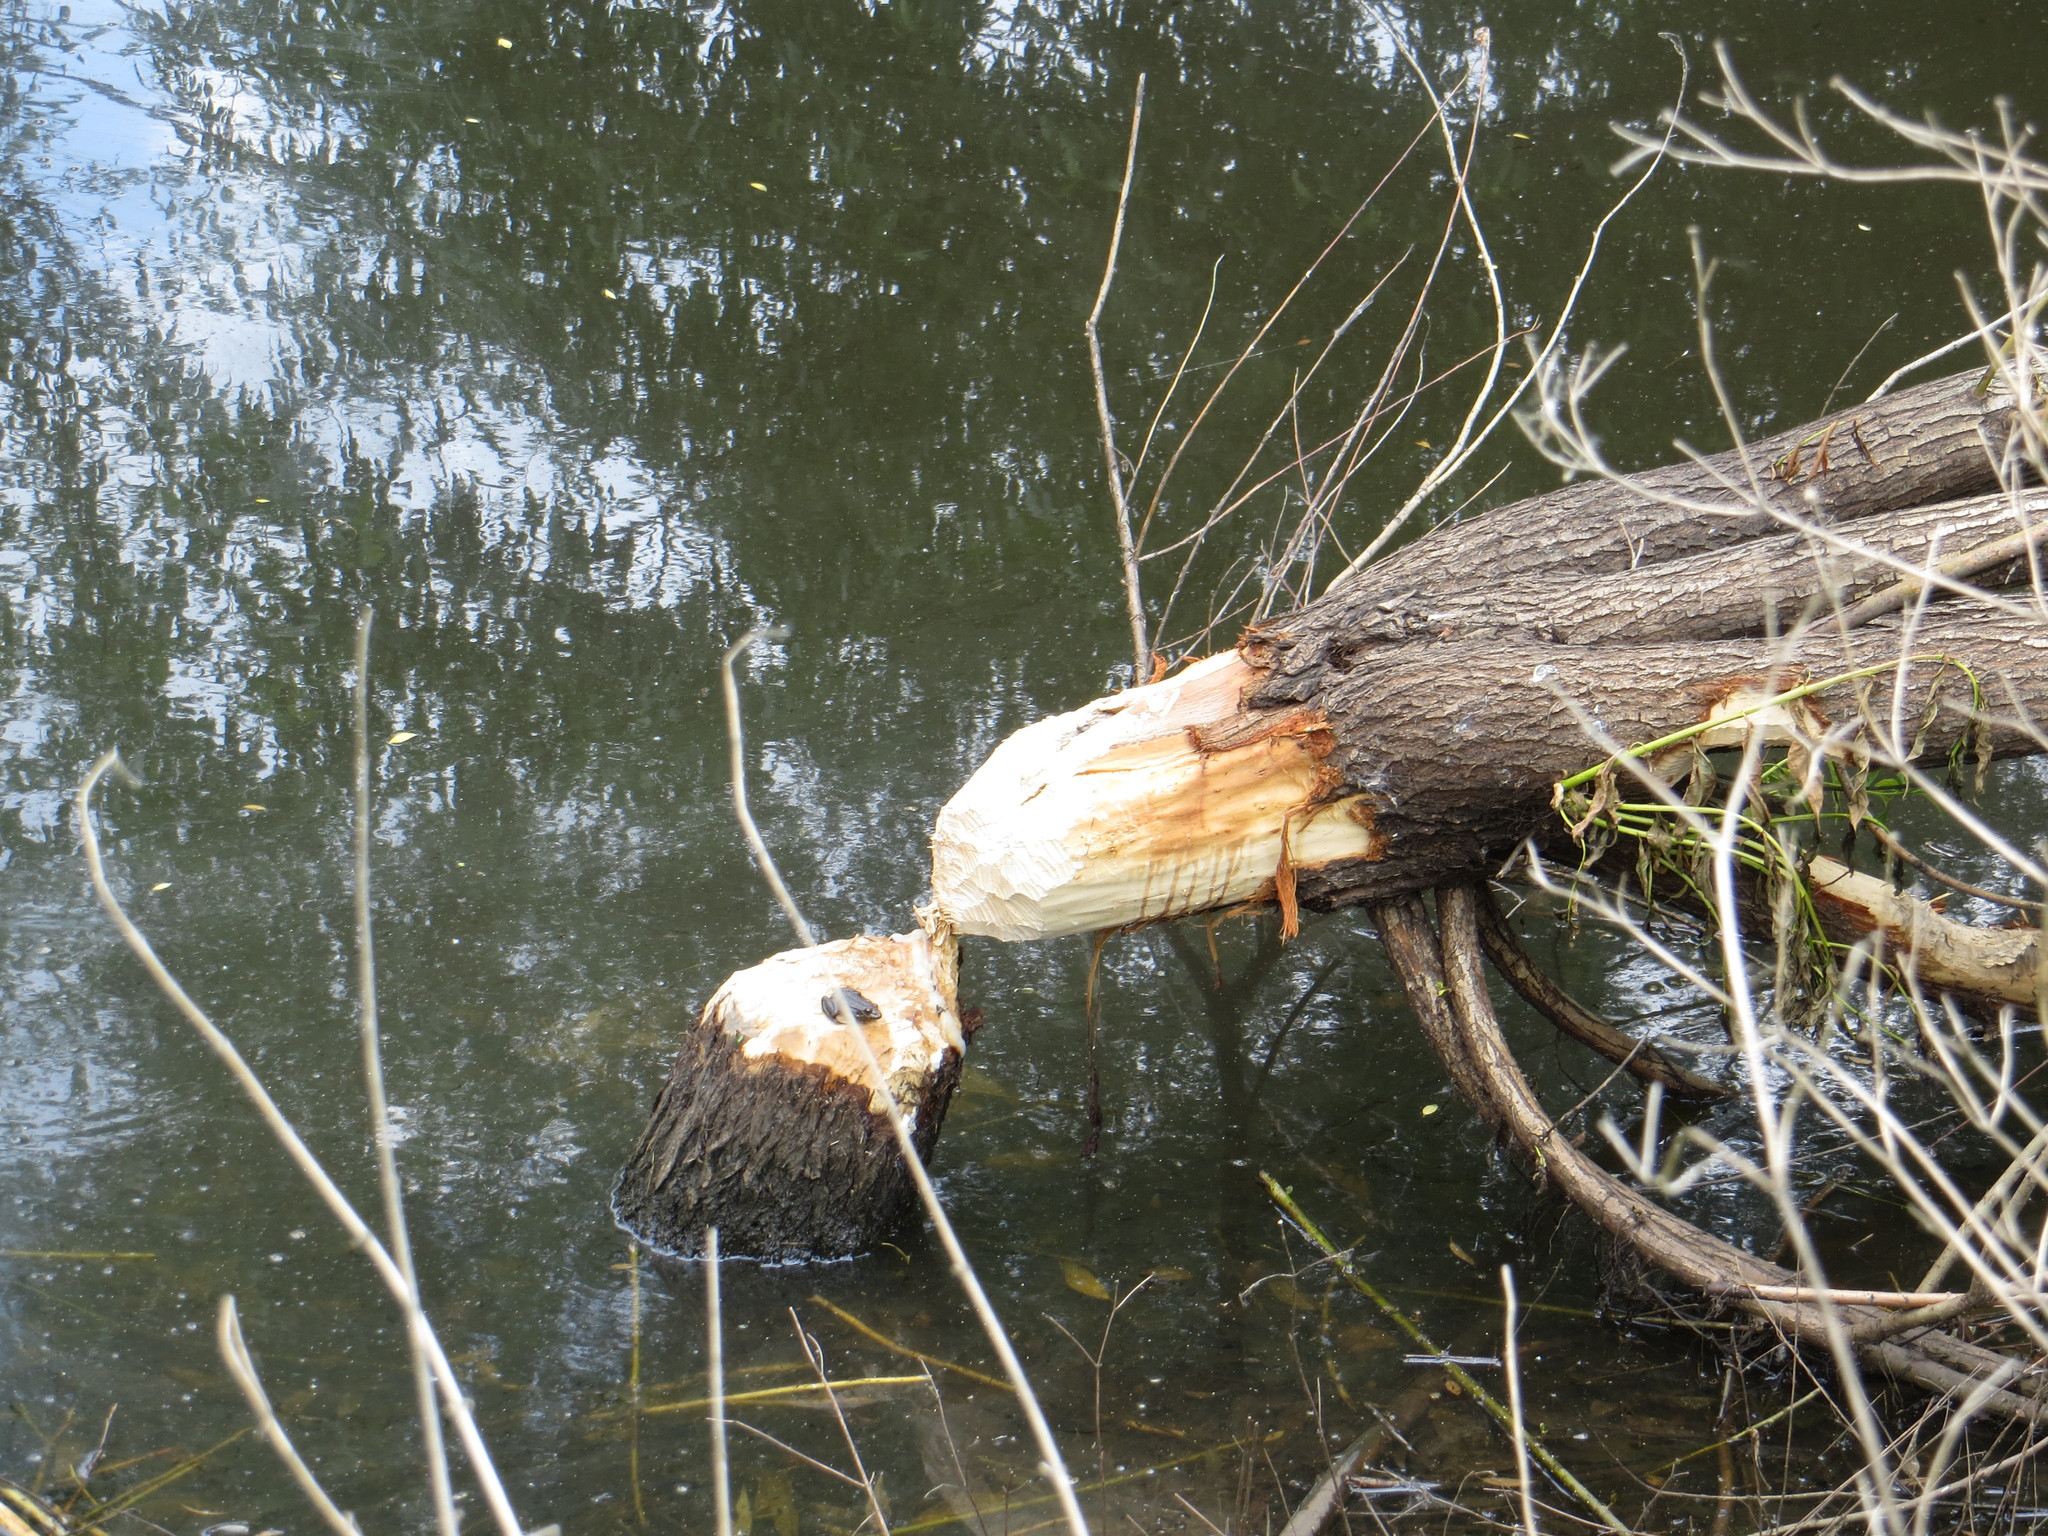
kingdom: Animalia
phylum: Chordata
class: Mammalia
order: Rodentia
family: Castoridae
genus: Castor
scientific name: Castor fiber
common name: Eurasian beaver
